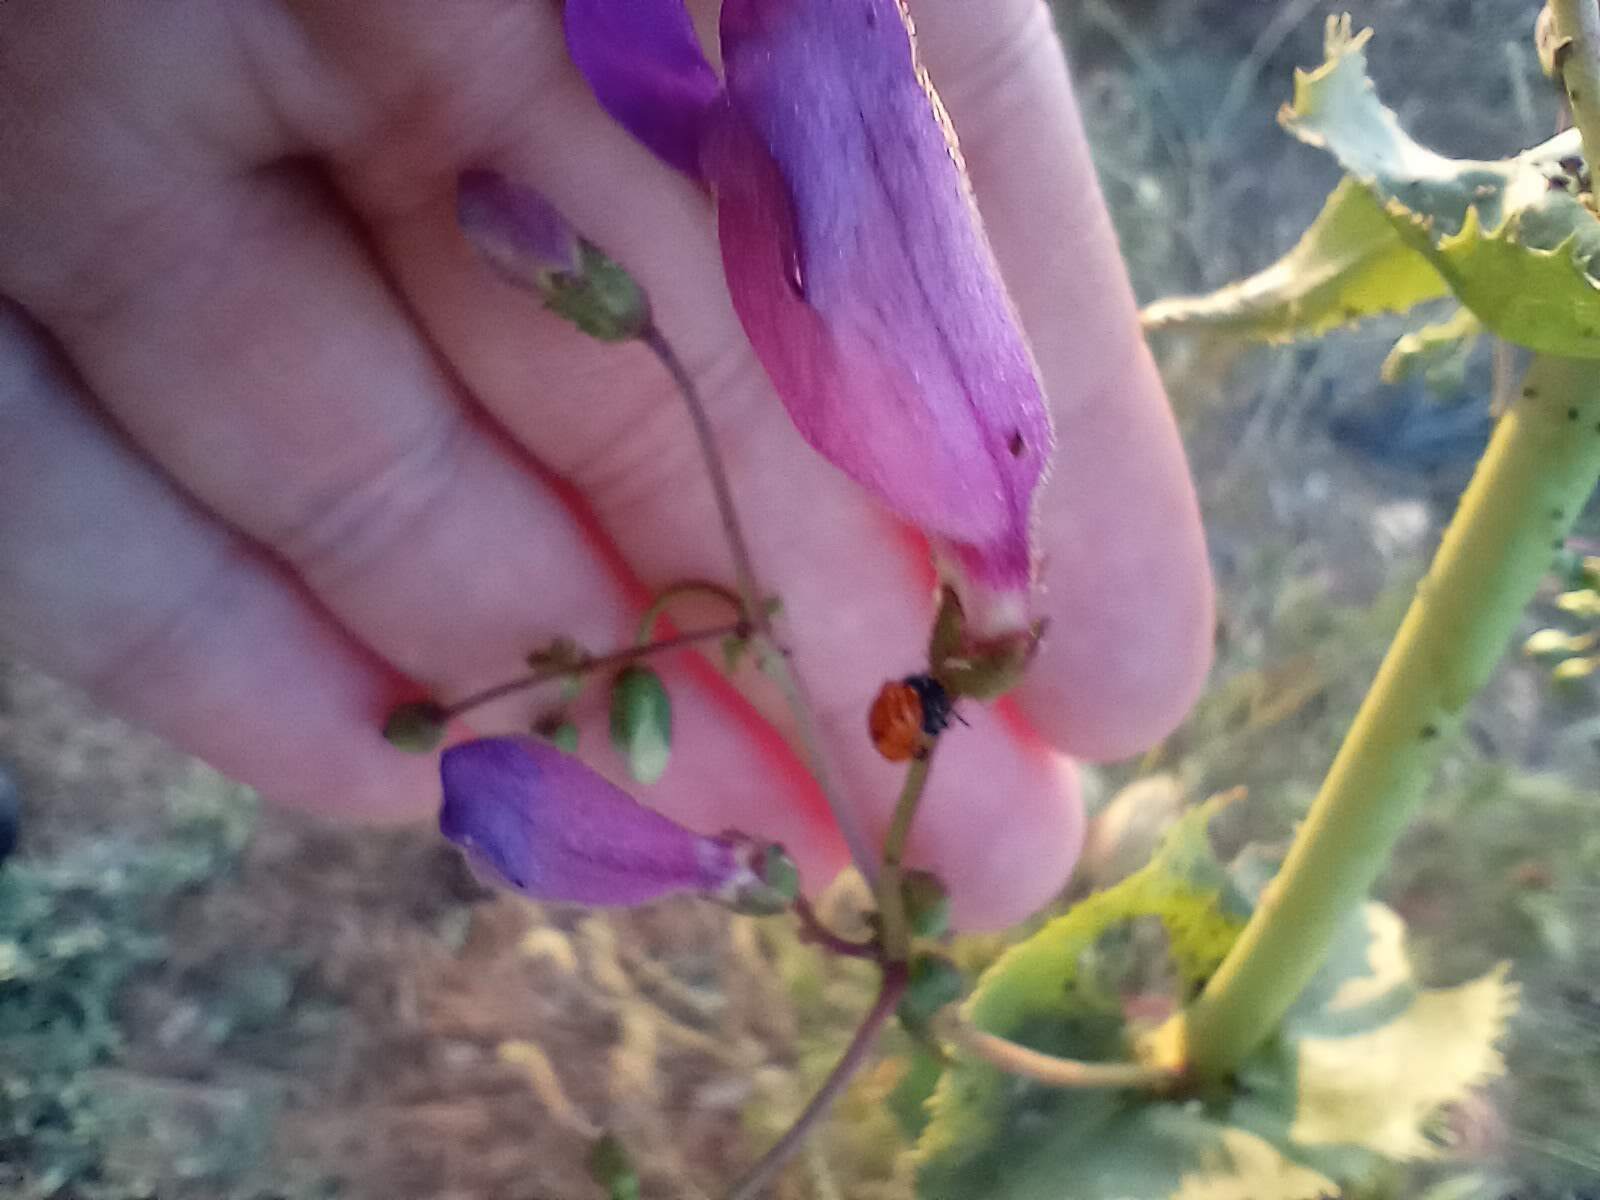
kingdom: Plantae
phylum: Tracheophyta
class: Magnoliopsida
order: Lamiales
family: Plantaginaceae
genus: Penstemon
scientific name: Penstemon spectabilis
